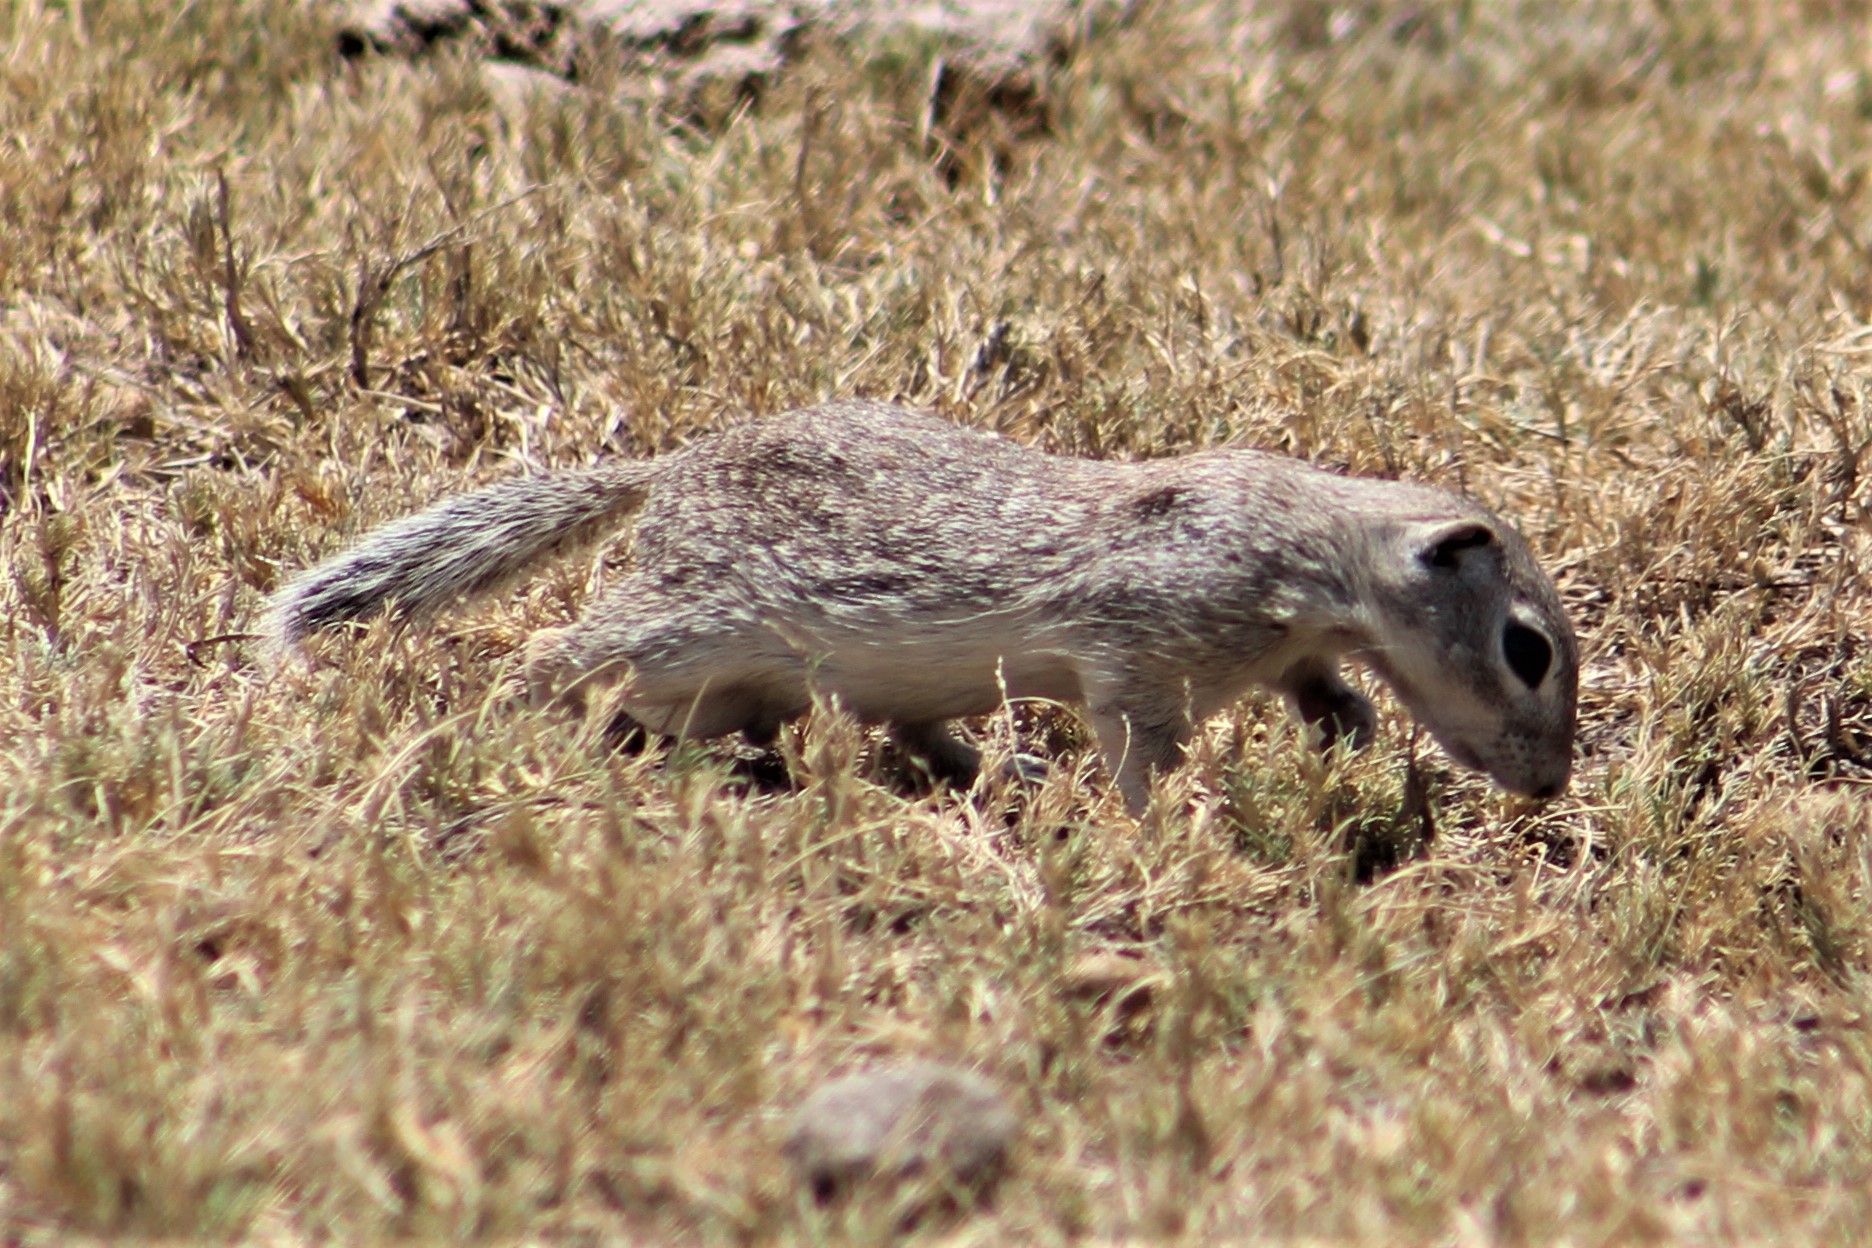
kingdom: Animalia
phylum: Chordata
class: Mammalia
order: Rodentia
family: Sciuridae
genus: Xerospermophilus
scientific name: Xerospermophilus spilosoma
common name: Spotted ground squirrel
